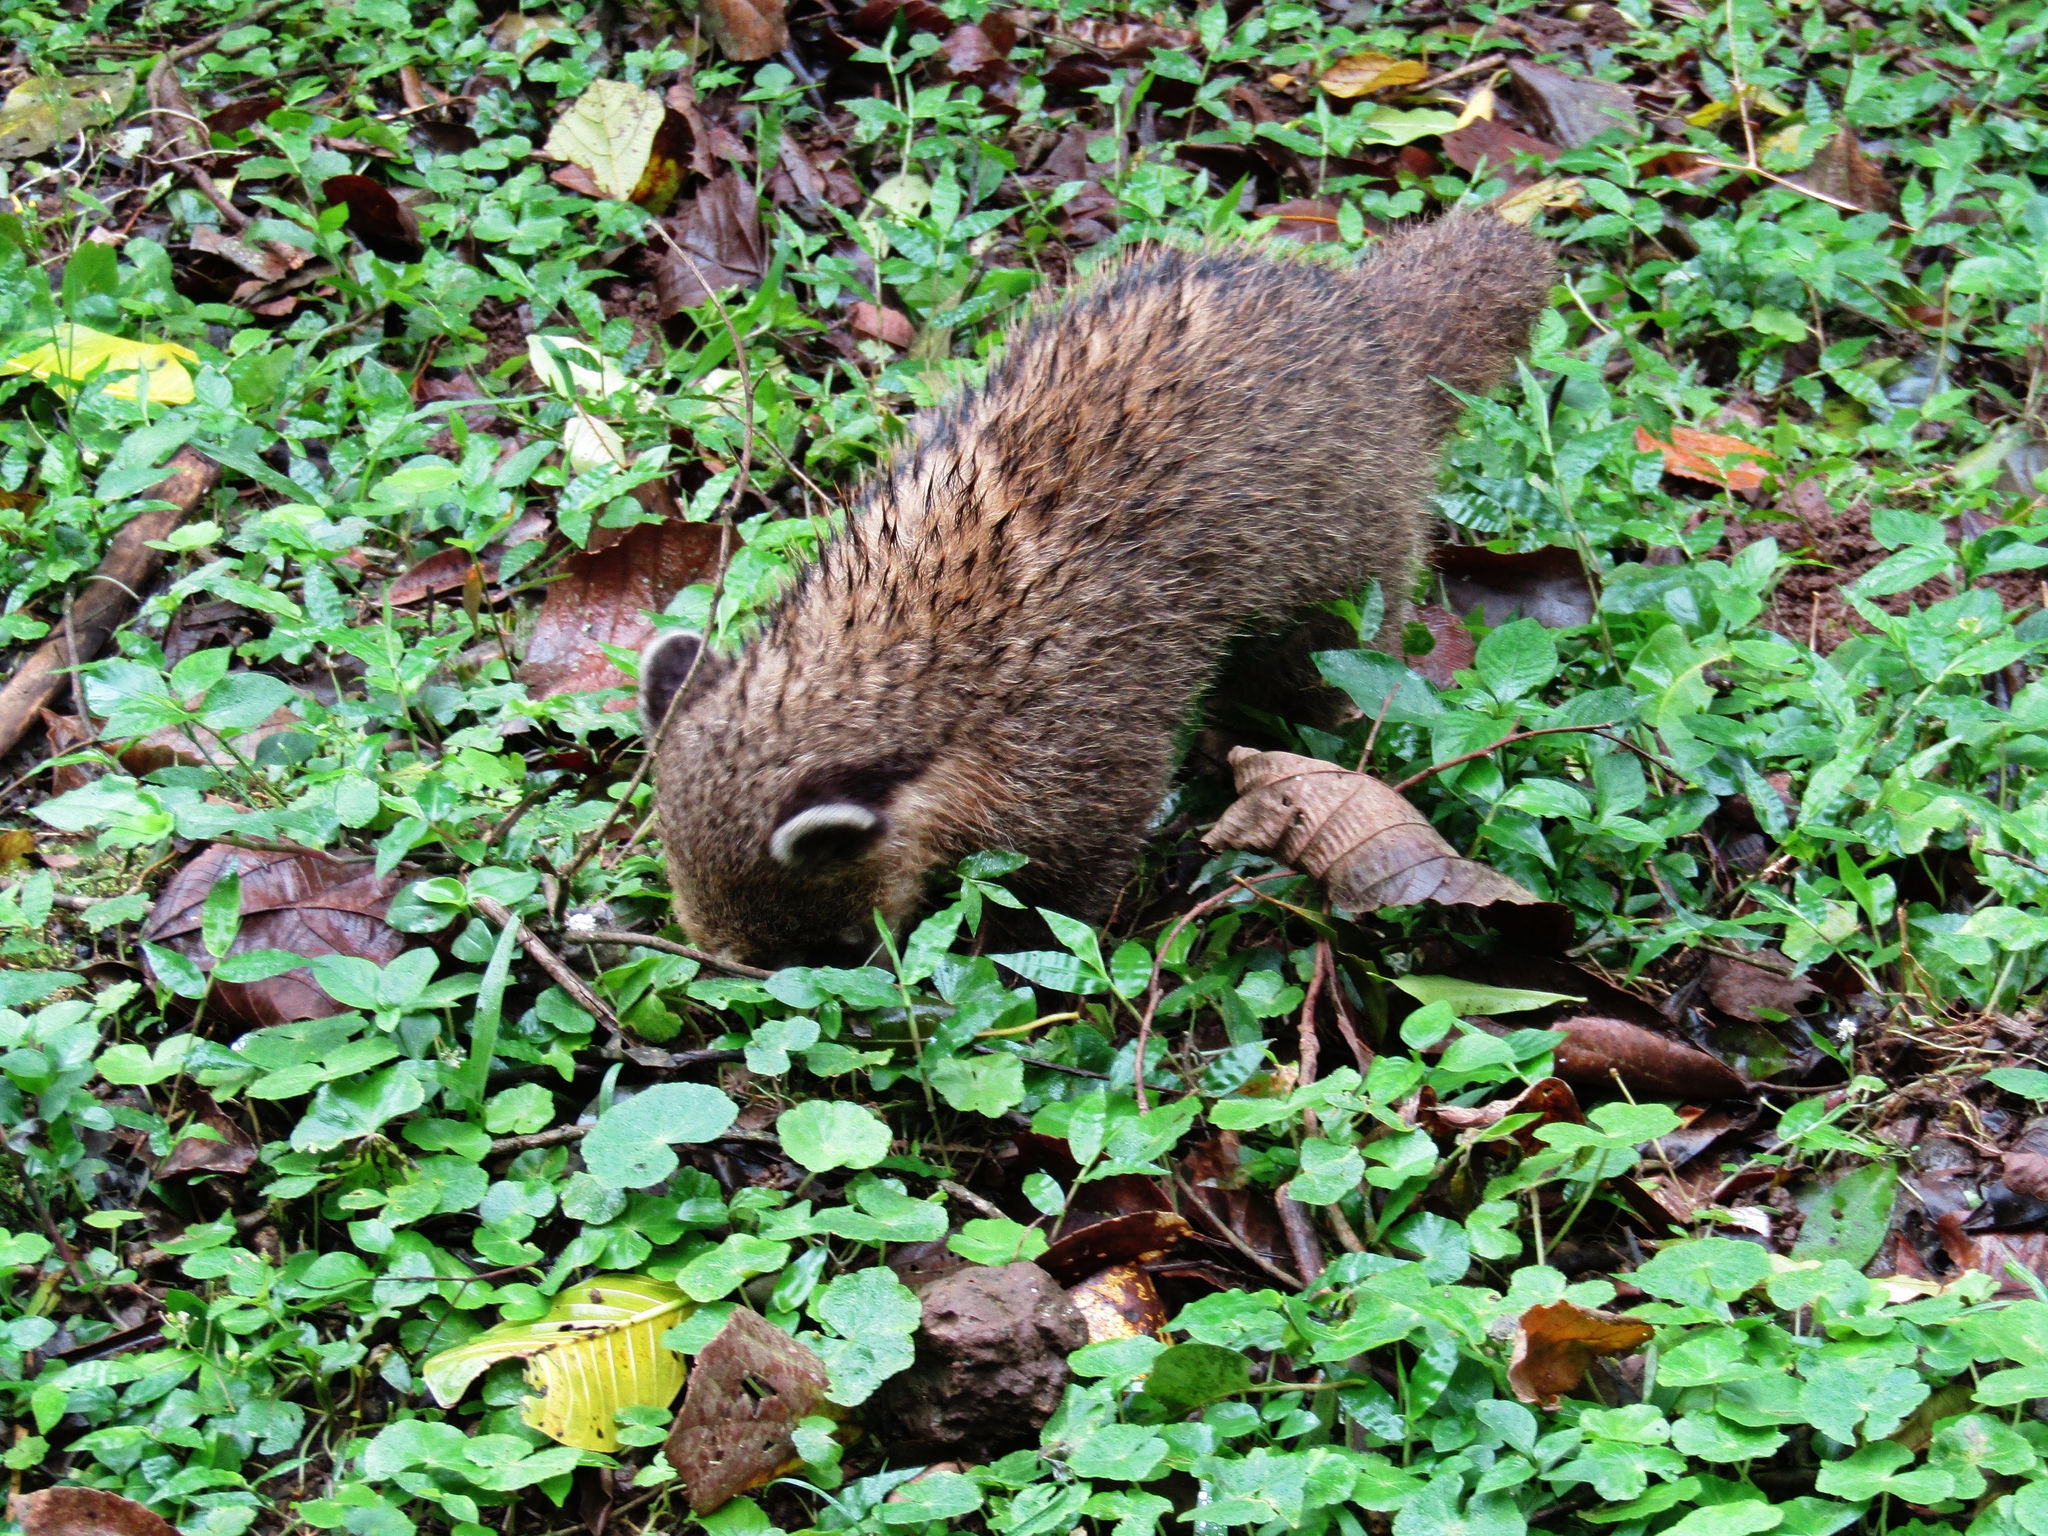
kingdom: Animalia
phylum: Chordata
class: Mammalia
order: Carnivora
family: Procyonidae
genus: Nasua
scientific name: Nasua nasua
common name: South american coati
